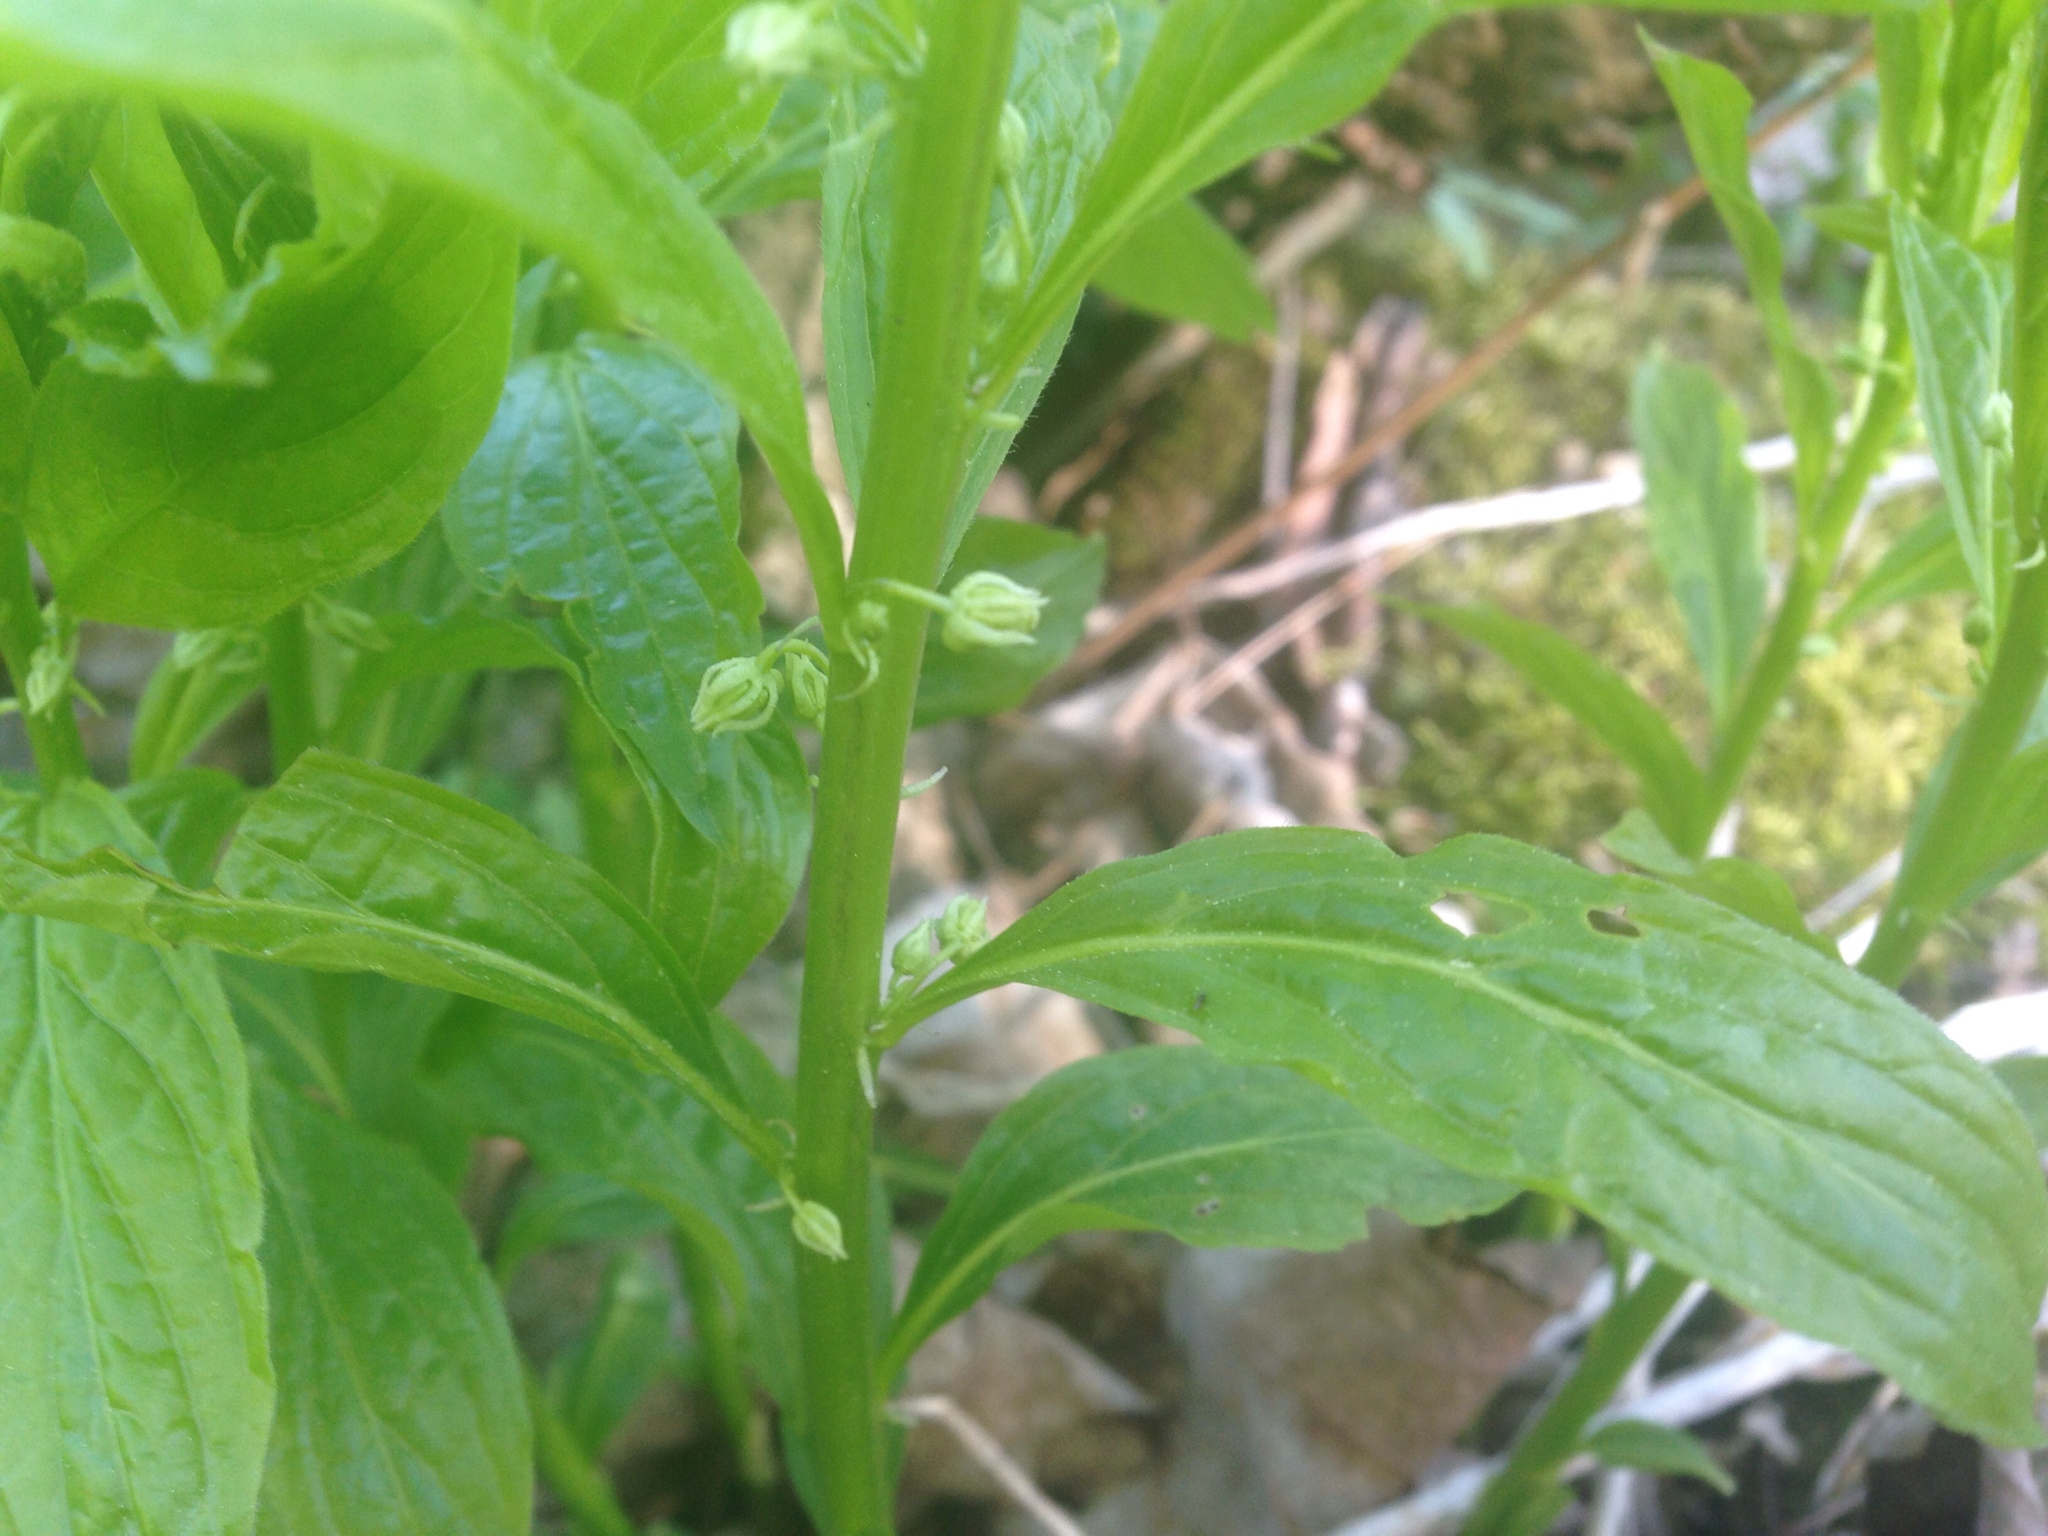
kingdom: Plantae
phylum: Tracheophyta
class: Magnoliopsida
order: Malpighiales
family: Violaceae
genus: Cubelium
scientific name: Cubelium concolor
